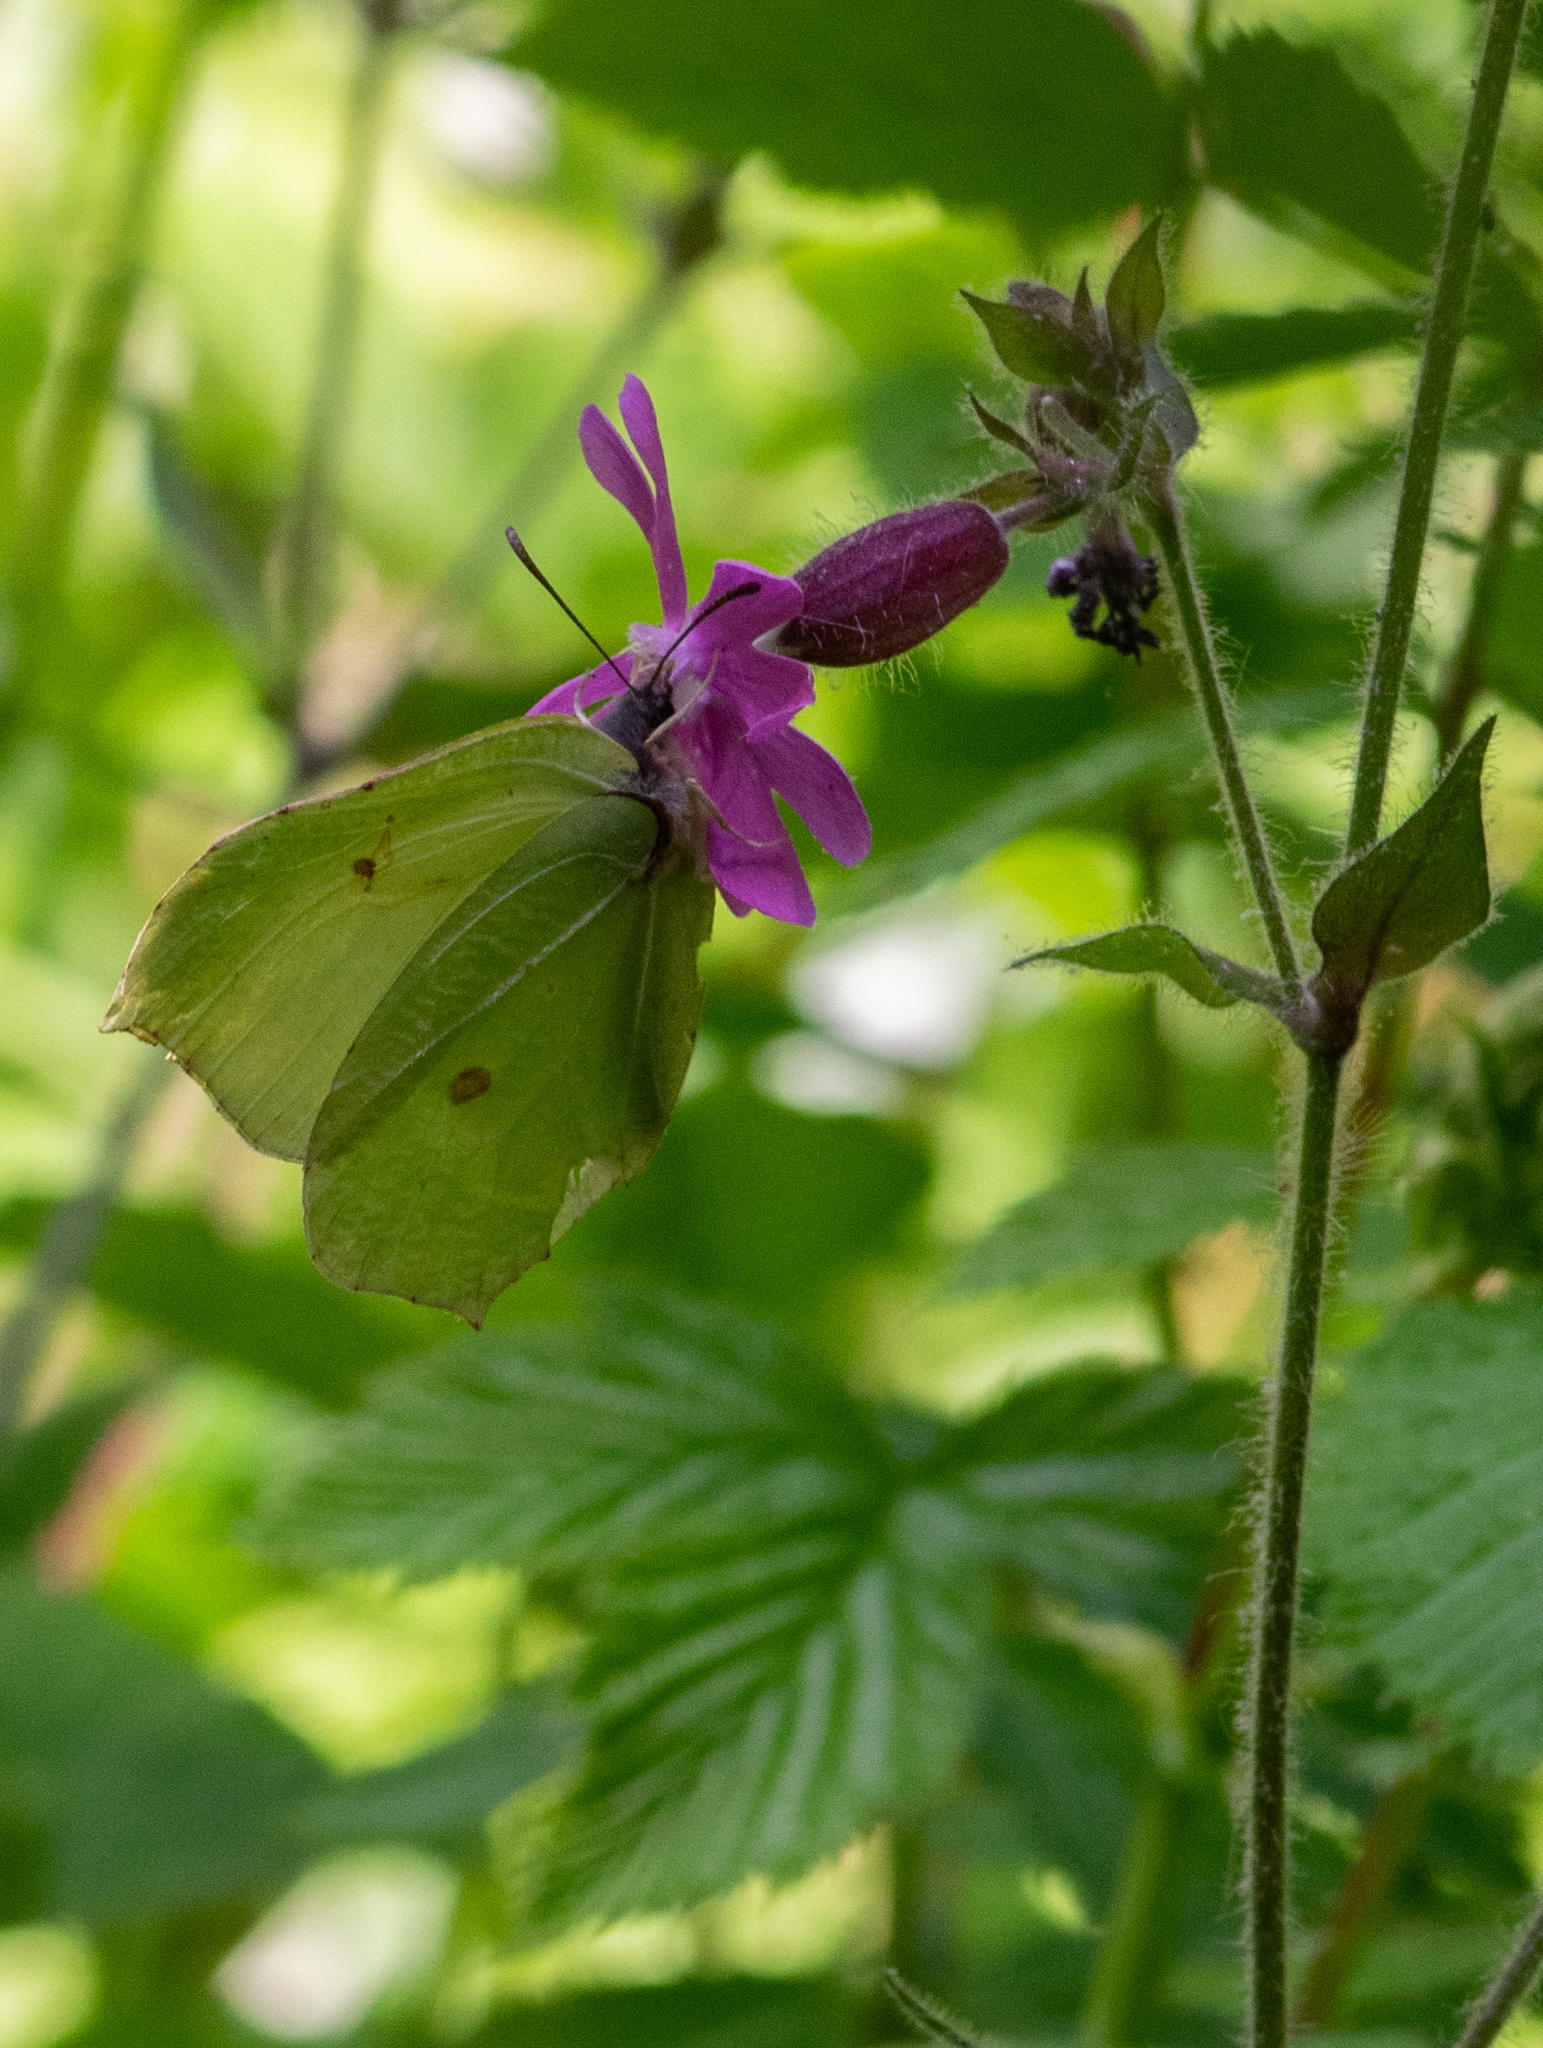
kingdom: Animalia
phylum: Arthropoda
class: Insecta
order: Lepidoptera
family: Pieridae
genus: Gonepteryx
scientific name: Gonepteryx rhamni
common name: Brimstone
